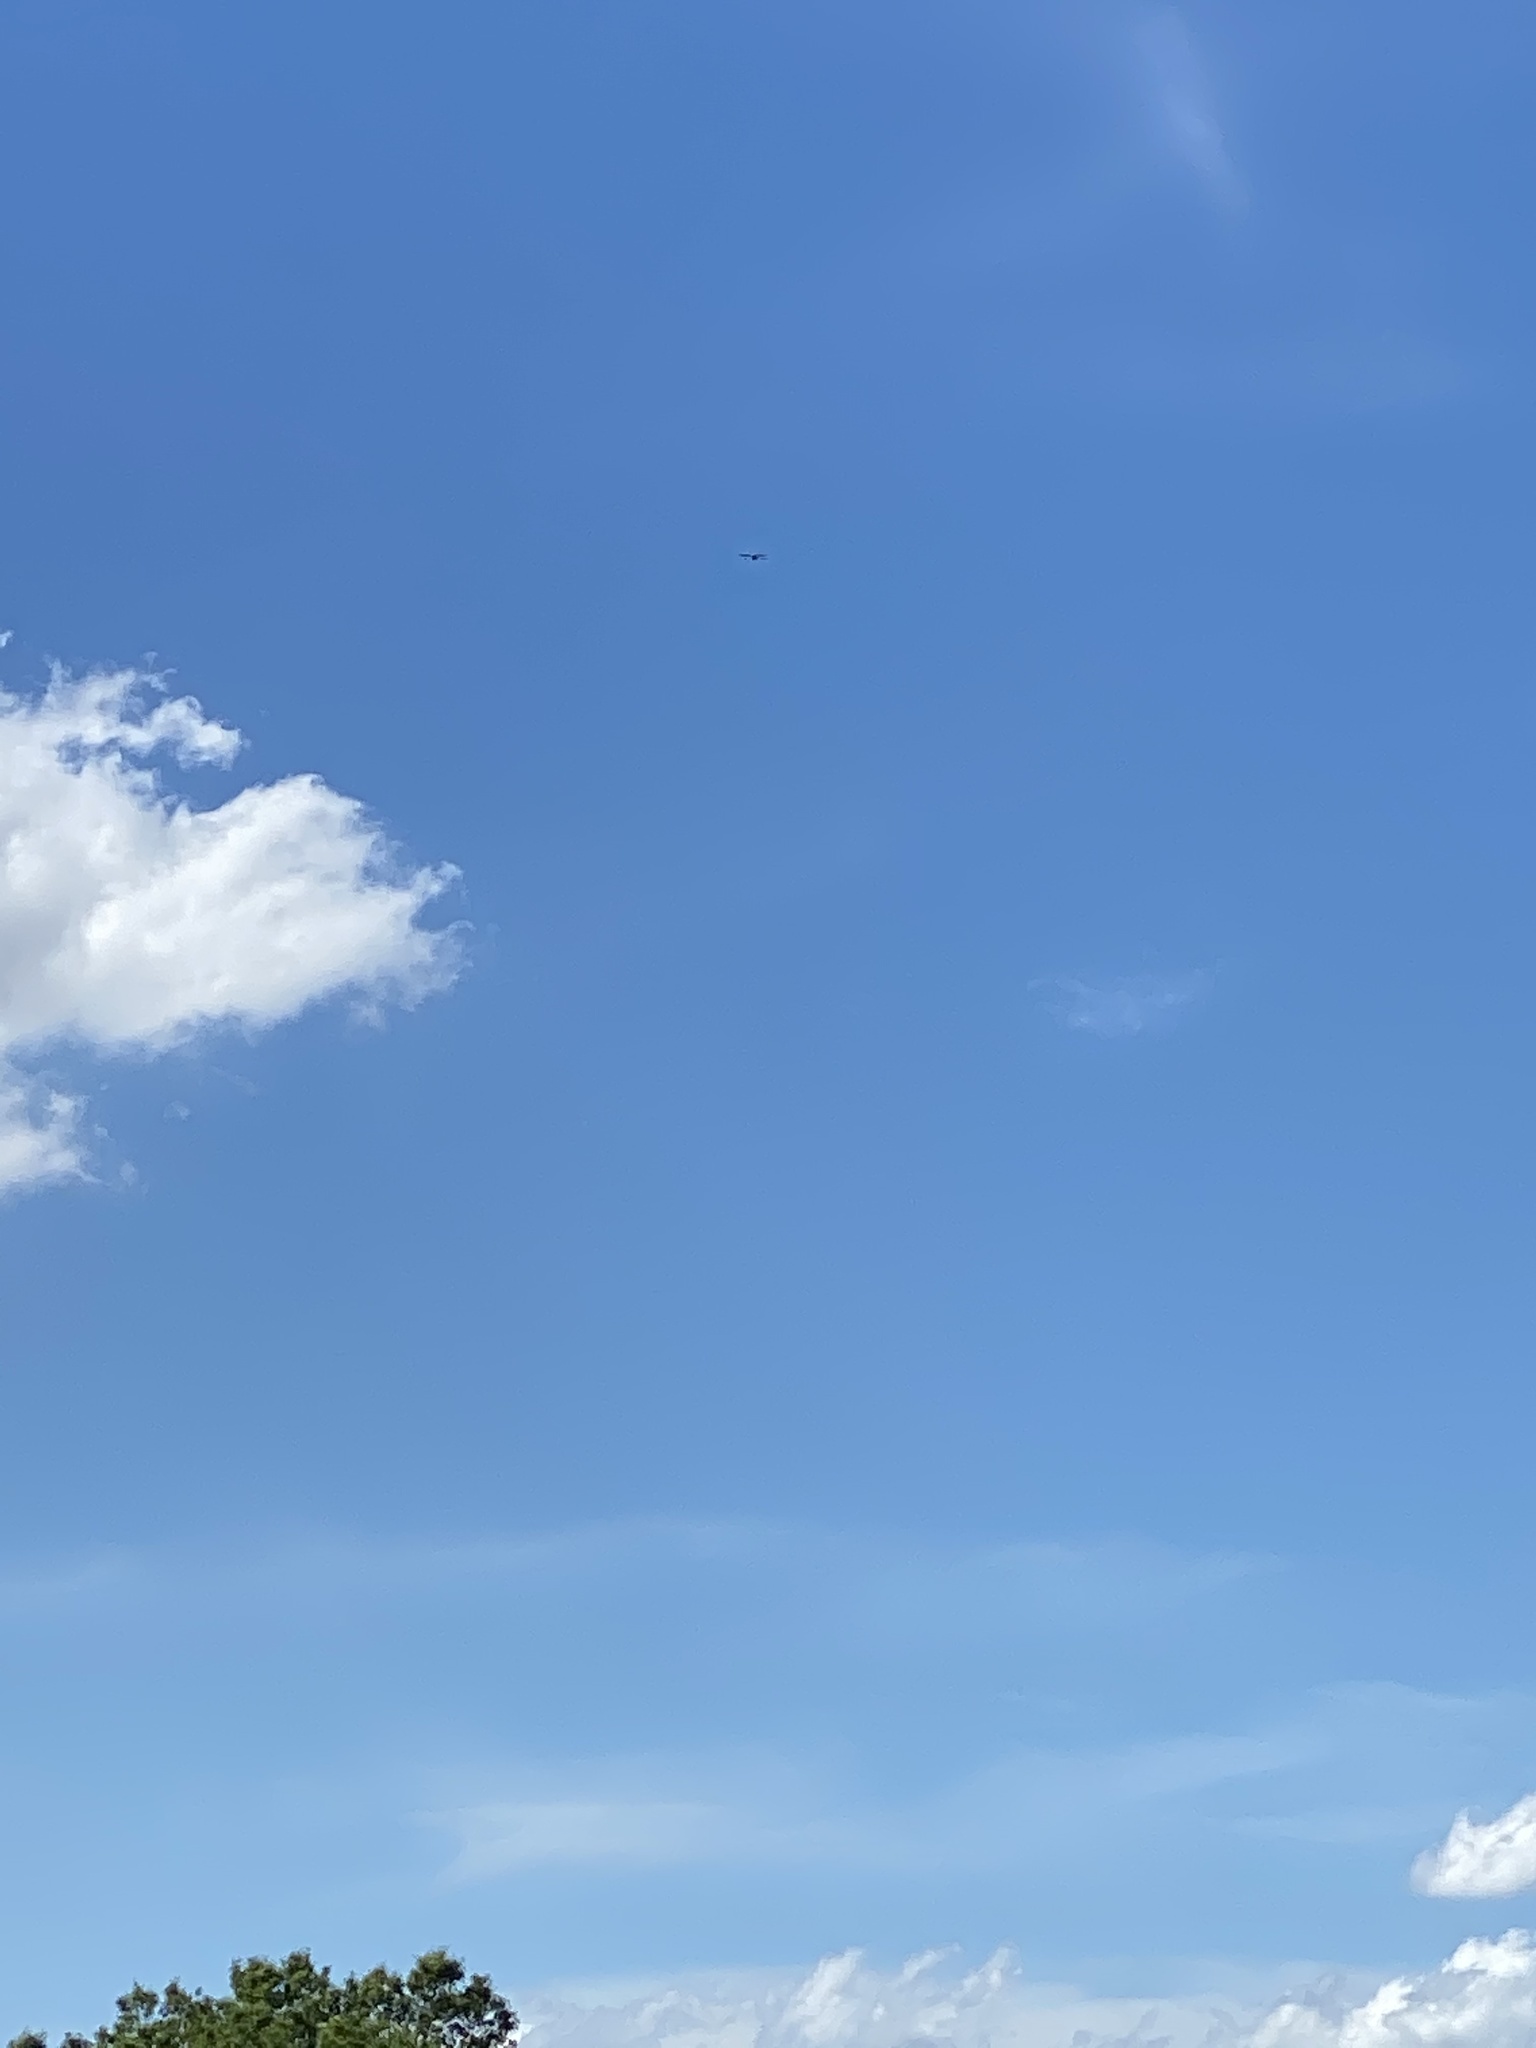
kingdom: Animalia
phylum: Chordata
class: Aves
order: Accipitriformes
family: Accipitridae
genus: Ictinia
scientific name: Ictinia mississippiensis
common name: Mississippi kite
